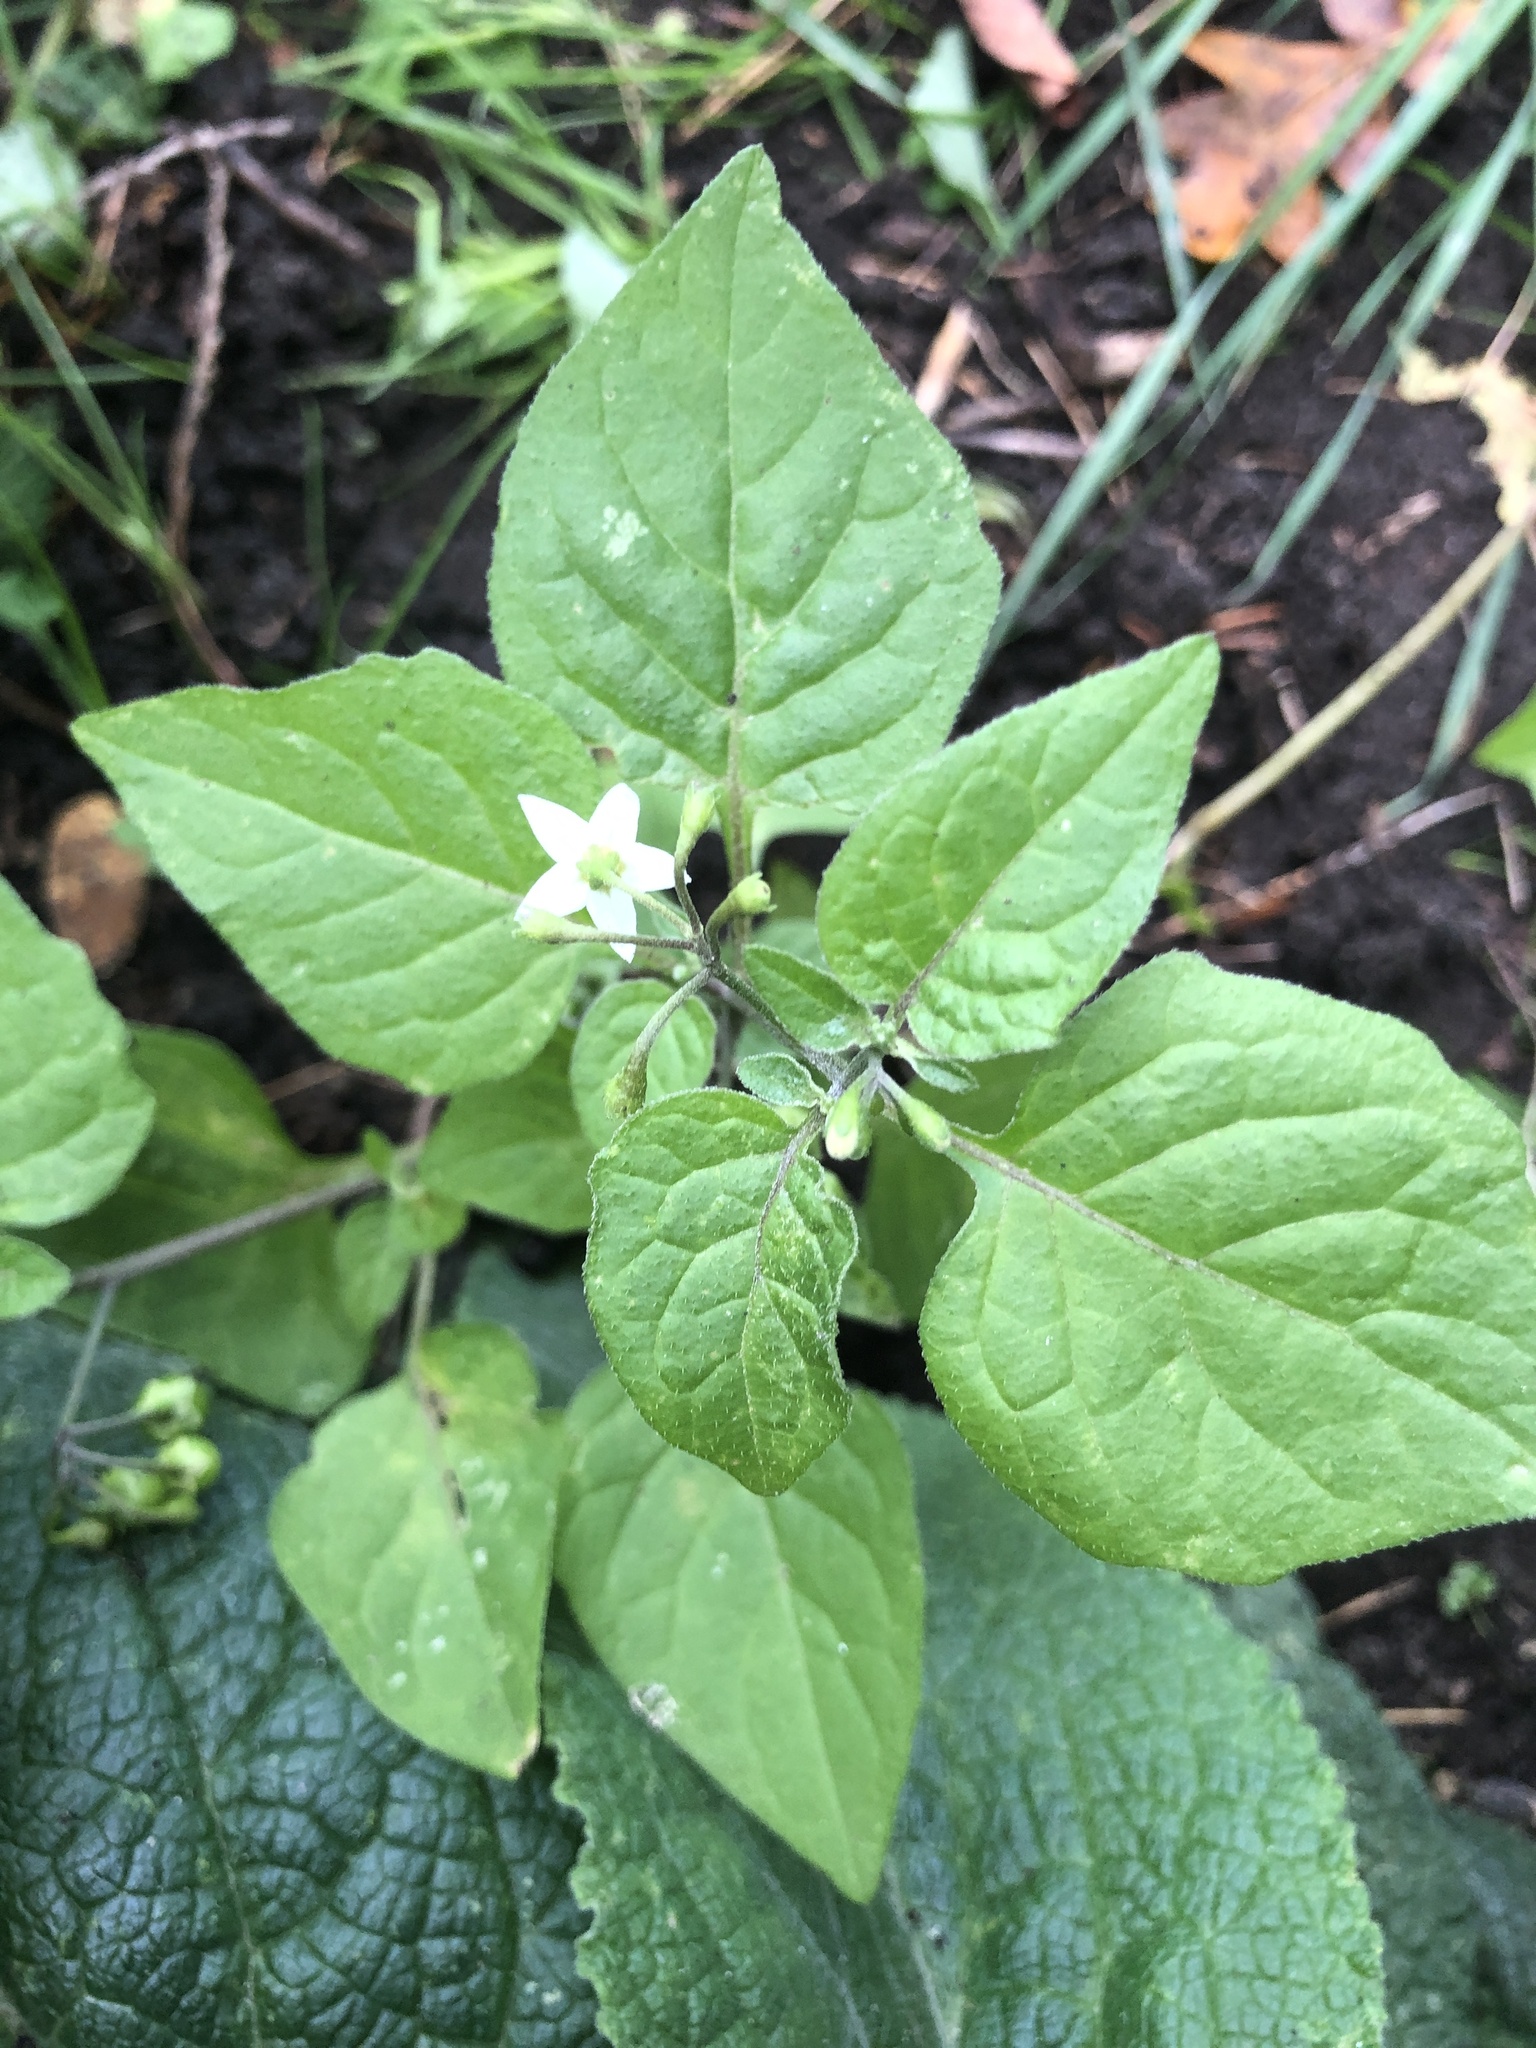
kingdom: Plantae
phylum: Tracheophyta
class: Magnoliopsida
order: Solanales
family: Solanaceae
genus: Solanum
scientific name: Solanum nigrum
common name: Black nightshade
